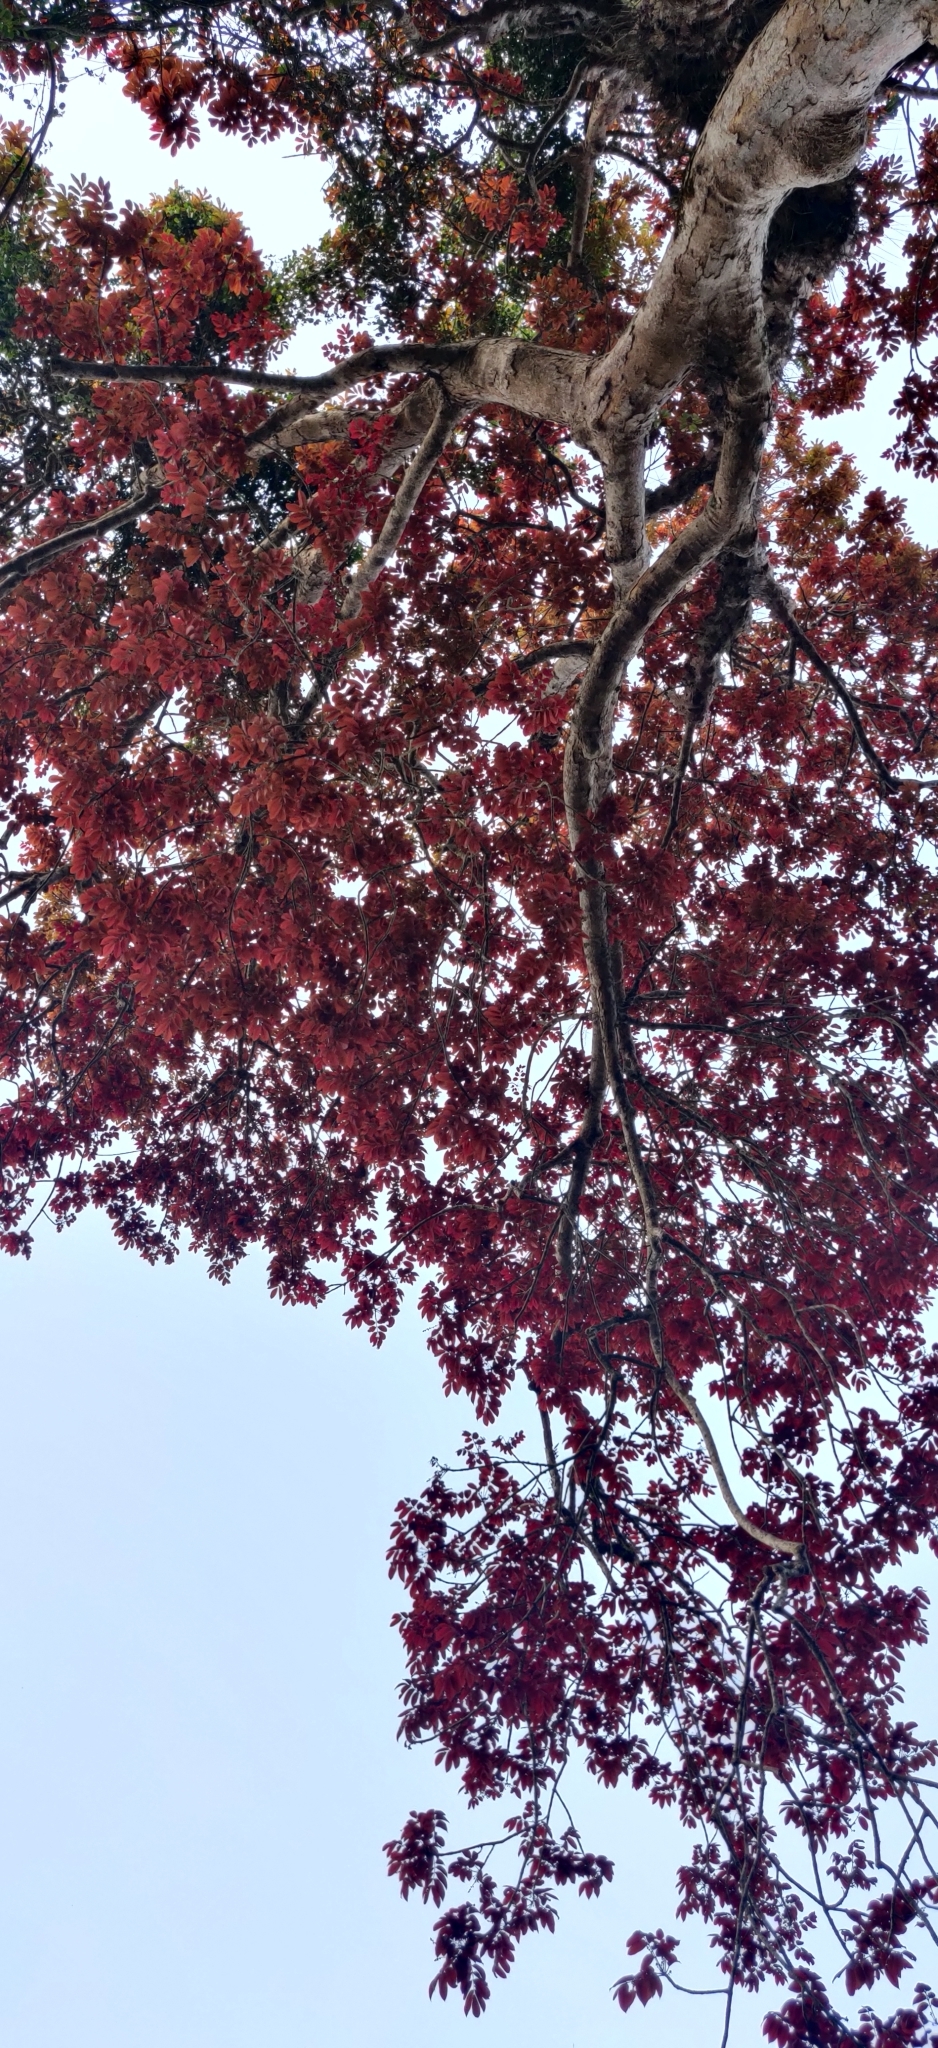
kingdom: Plantae
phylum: Tracheophyta
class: Magnoliopsida
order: Sapindales
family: Burseraceae
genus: Canarium
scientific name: Canarium strictum
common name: Indian white-mahogany
